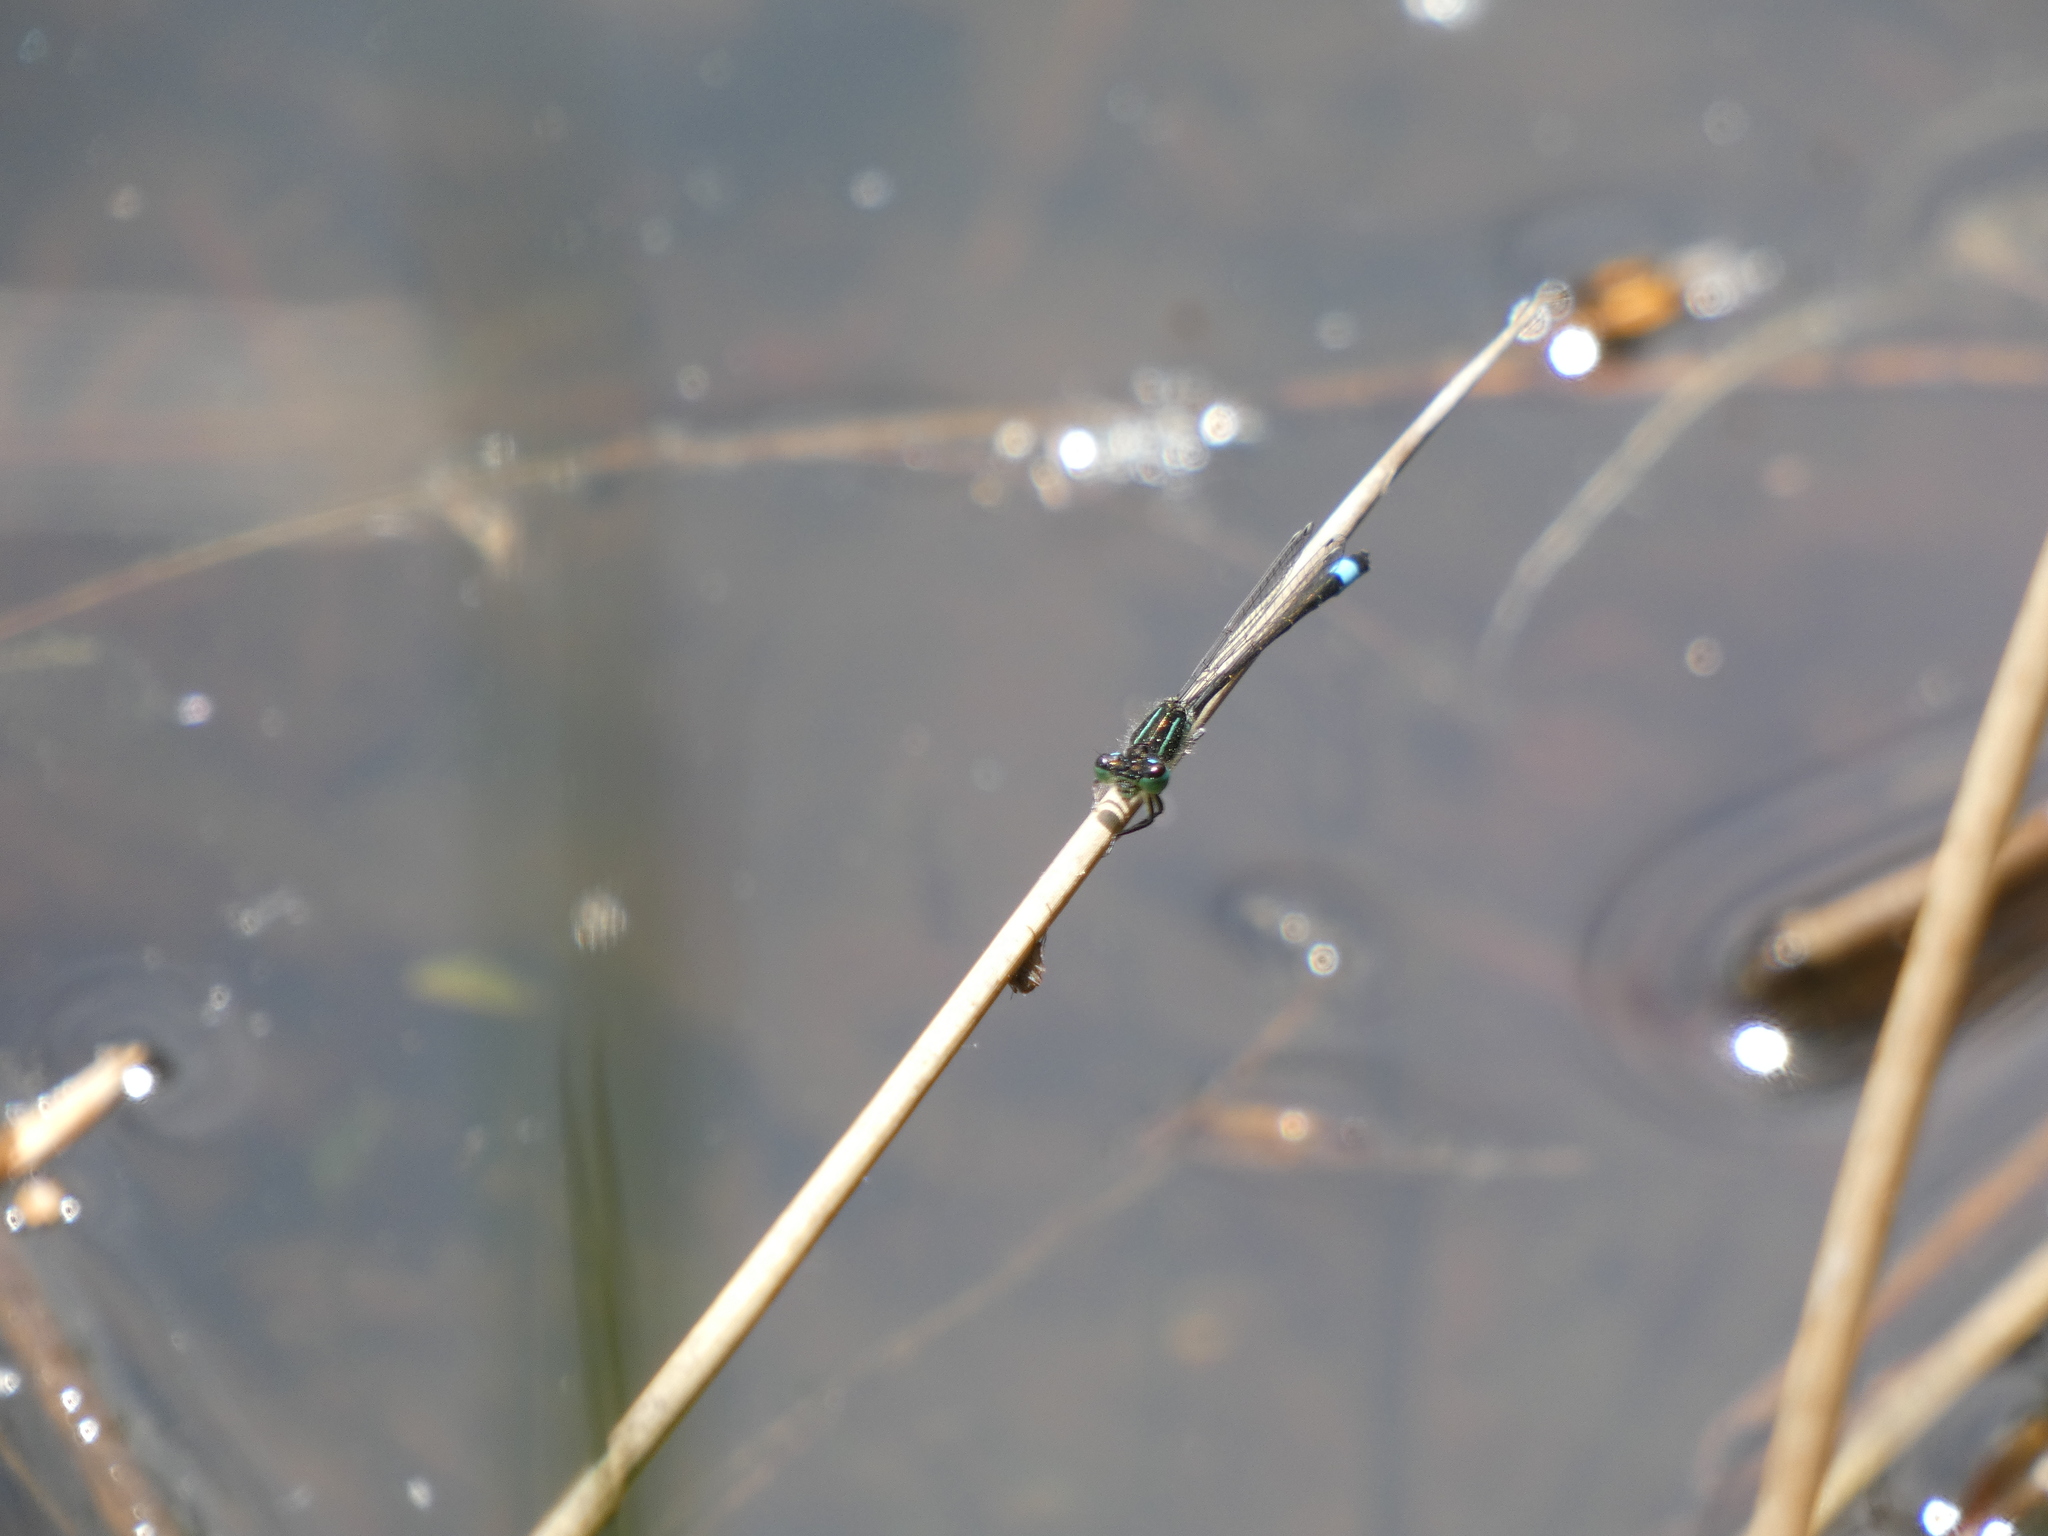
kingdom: Animalia
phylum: Arthropoda
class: Insecta
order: Odonata
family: Coenagrionidae
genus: Ischnura
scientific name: Ischnura elegans
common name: Blue-tailed damselfly
